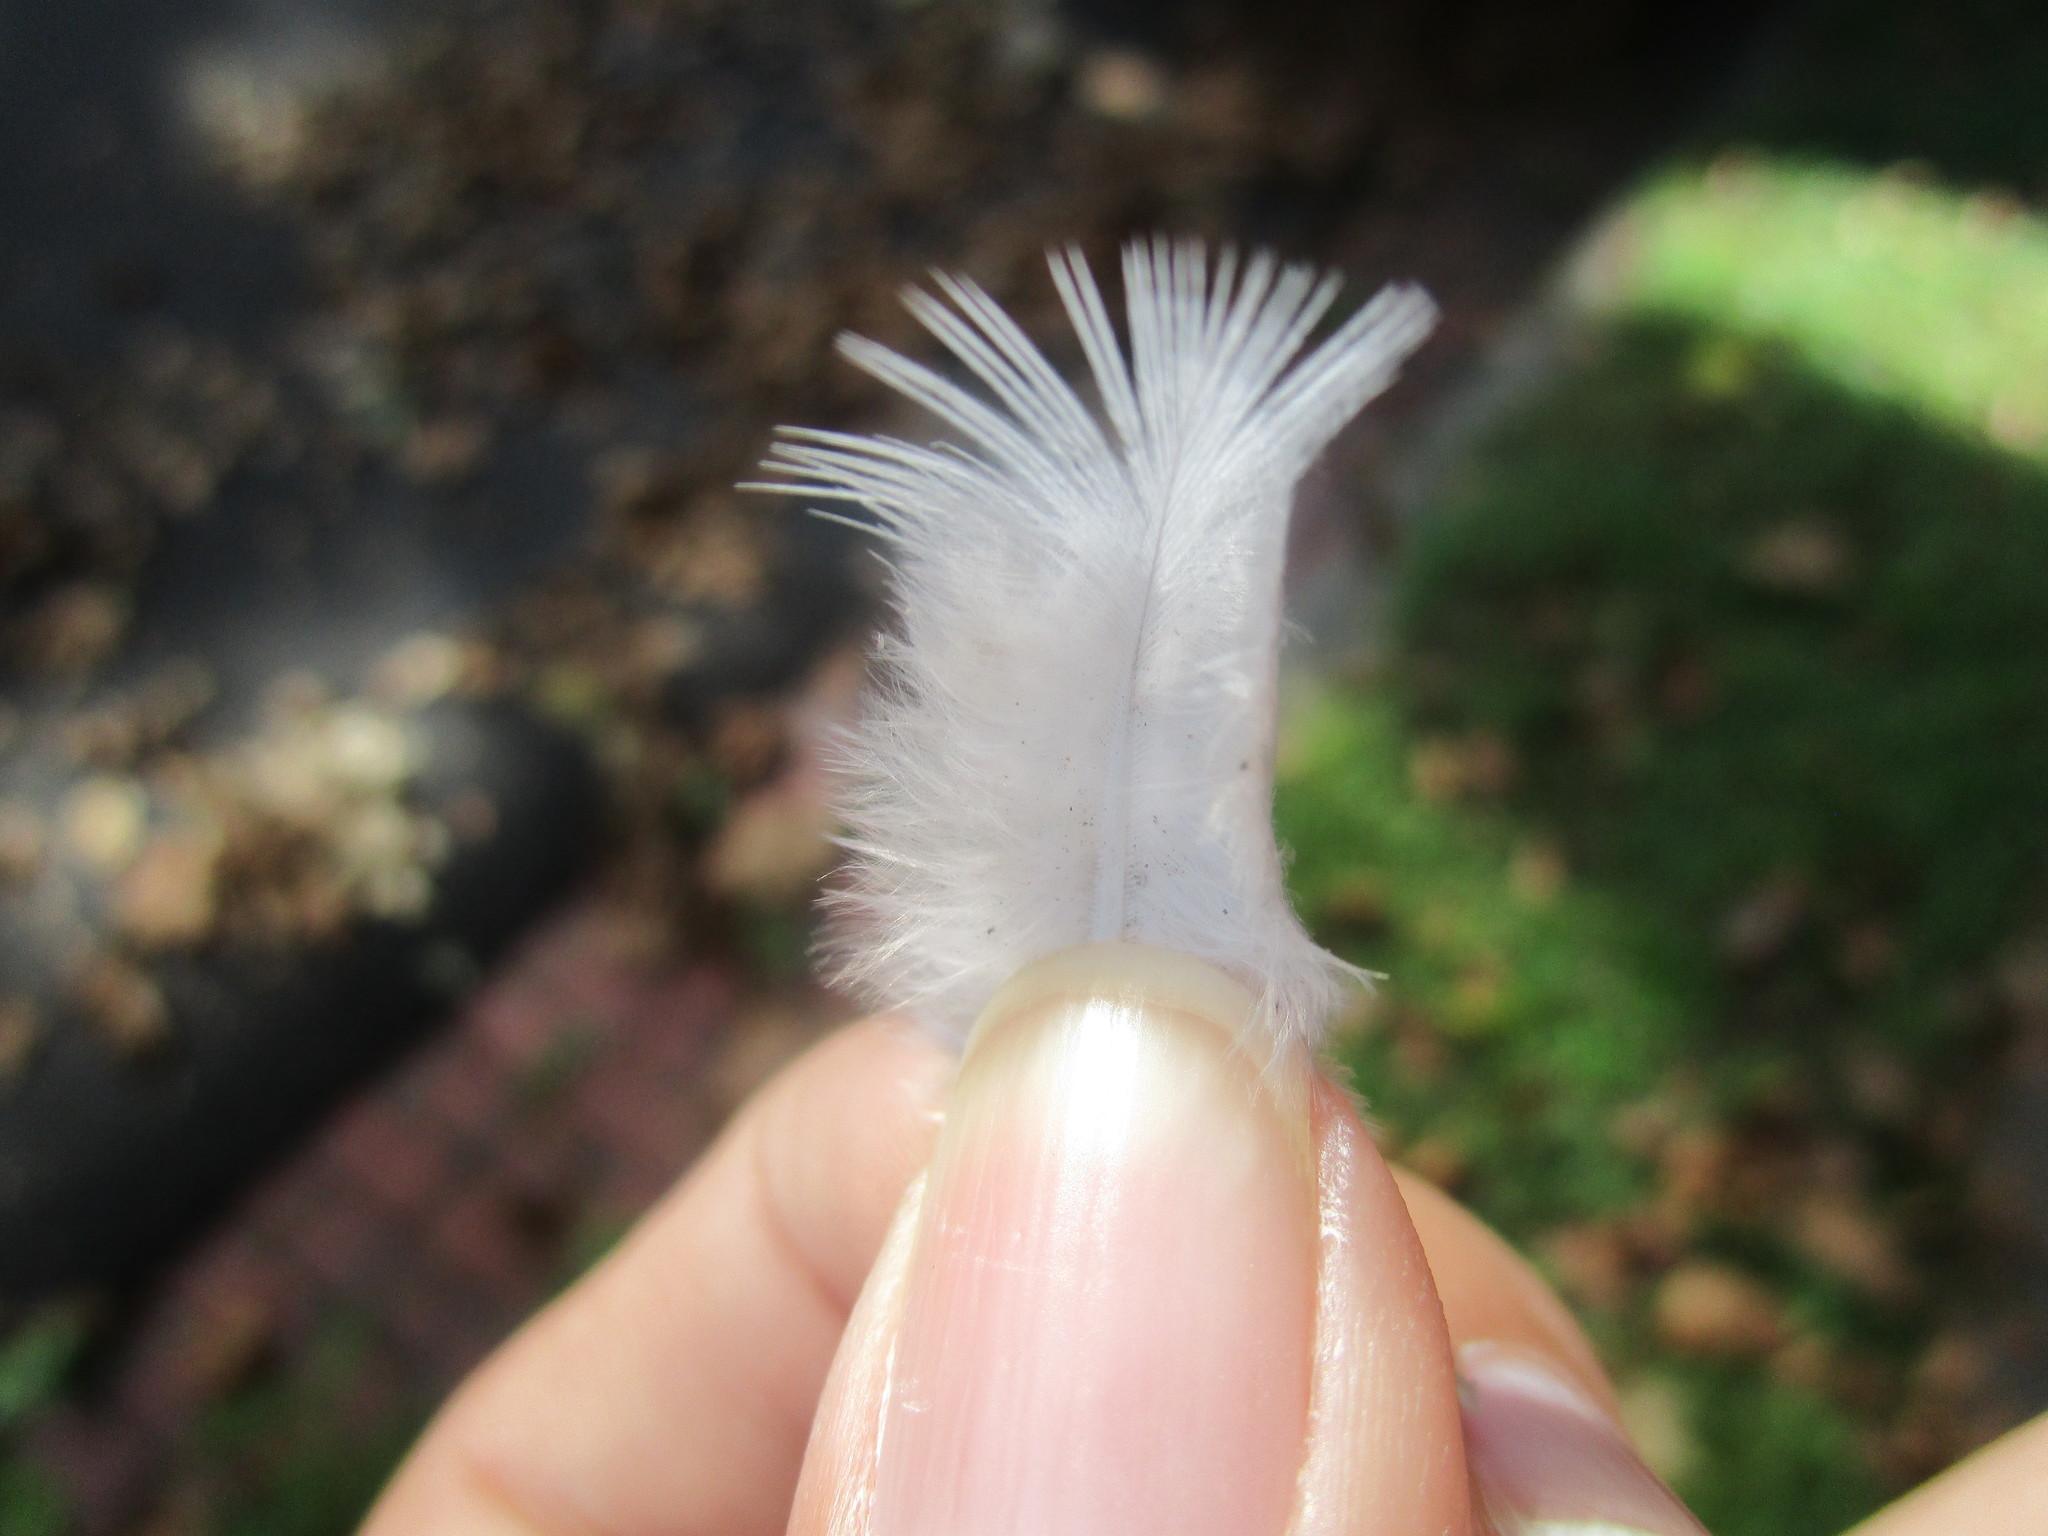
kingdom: Animalia
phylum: Chordata
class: Aves
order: Columbiformes
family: Columbidae
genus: Zenaida
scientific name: Zenaida macroura
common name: Mourning dove
